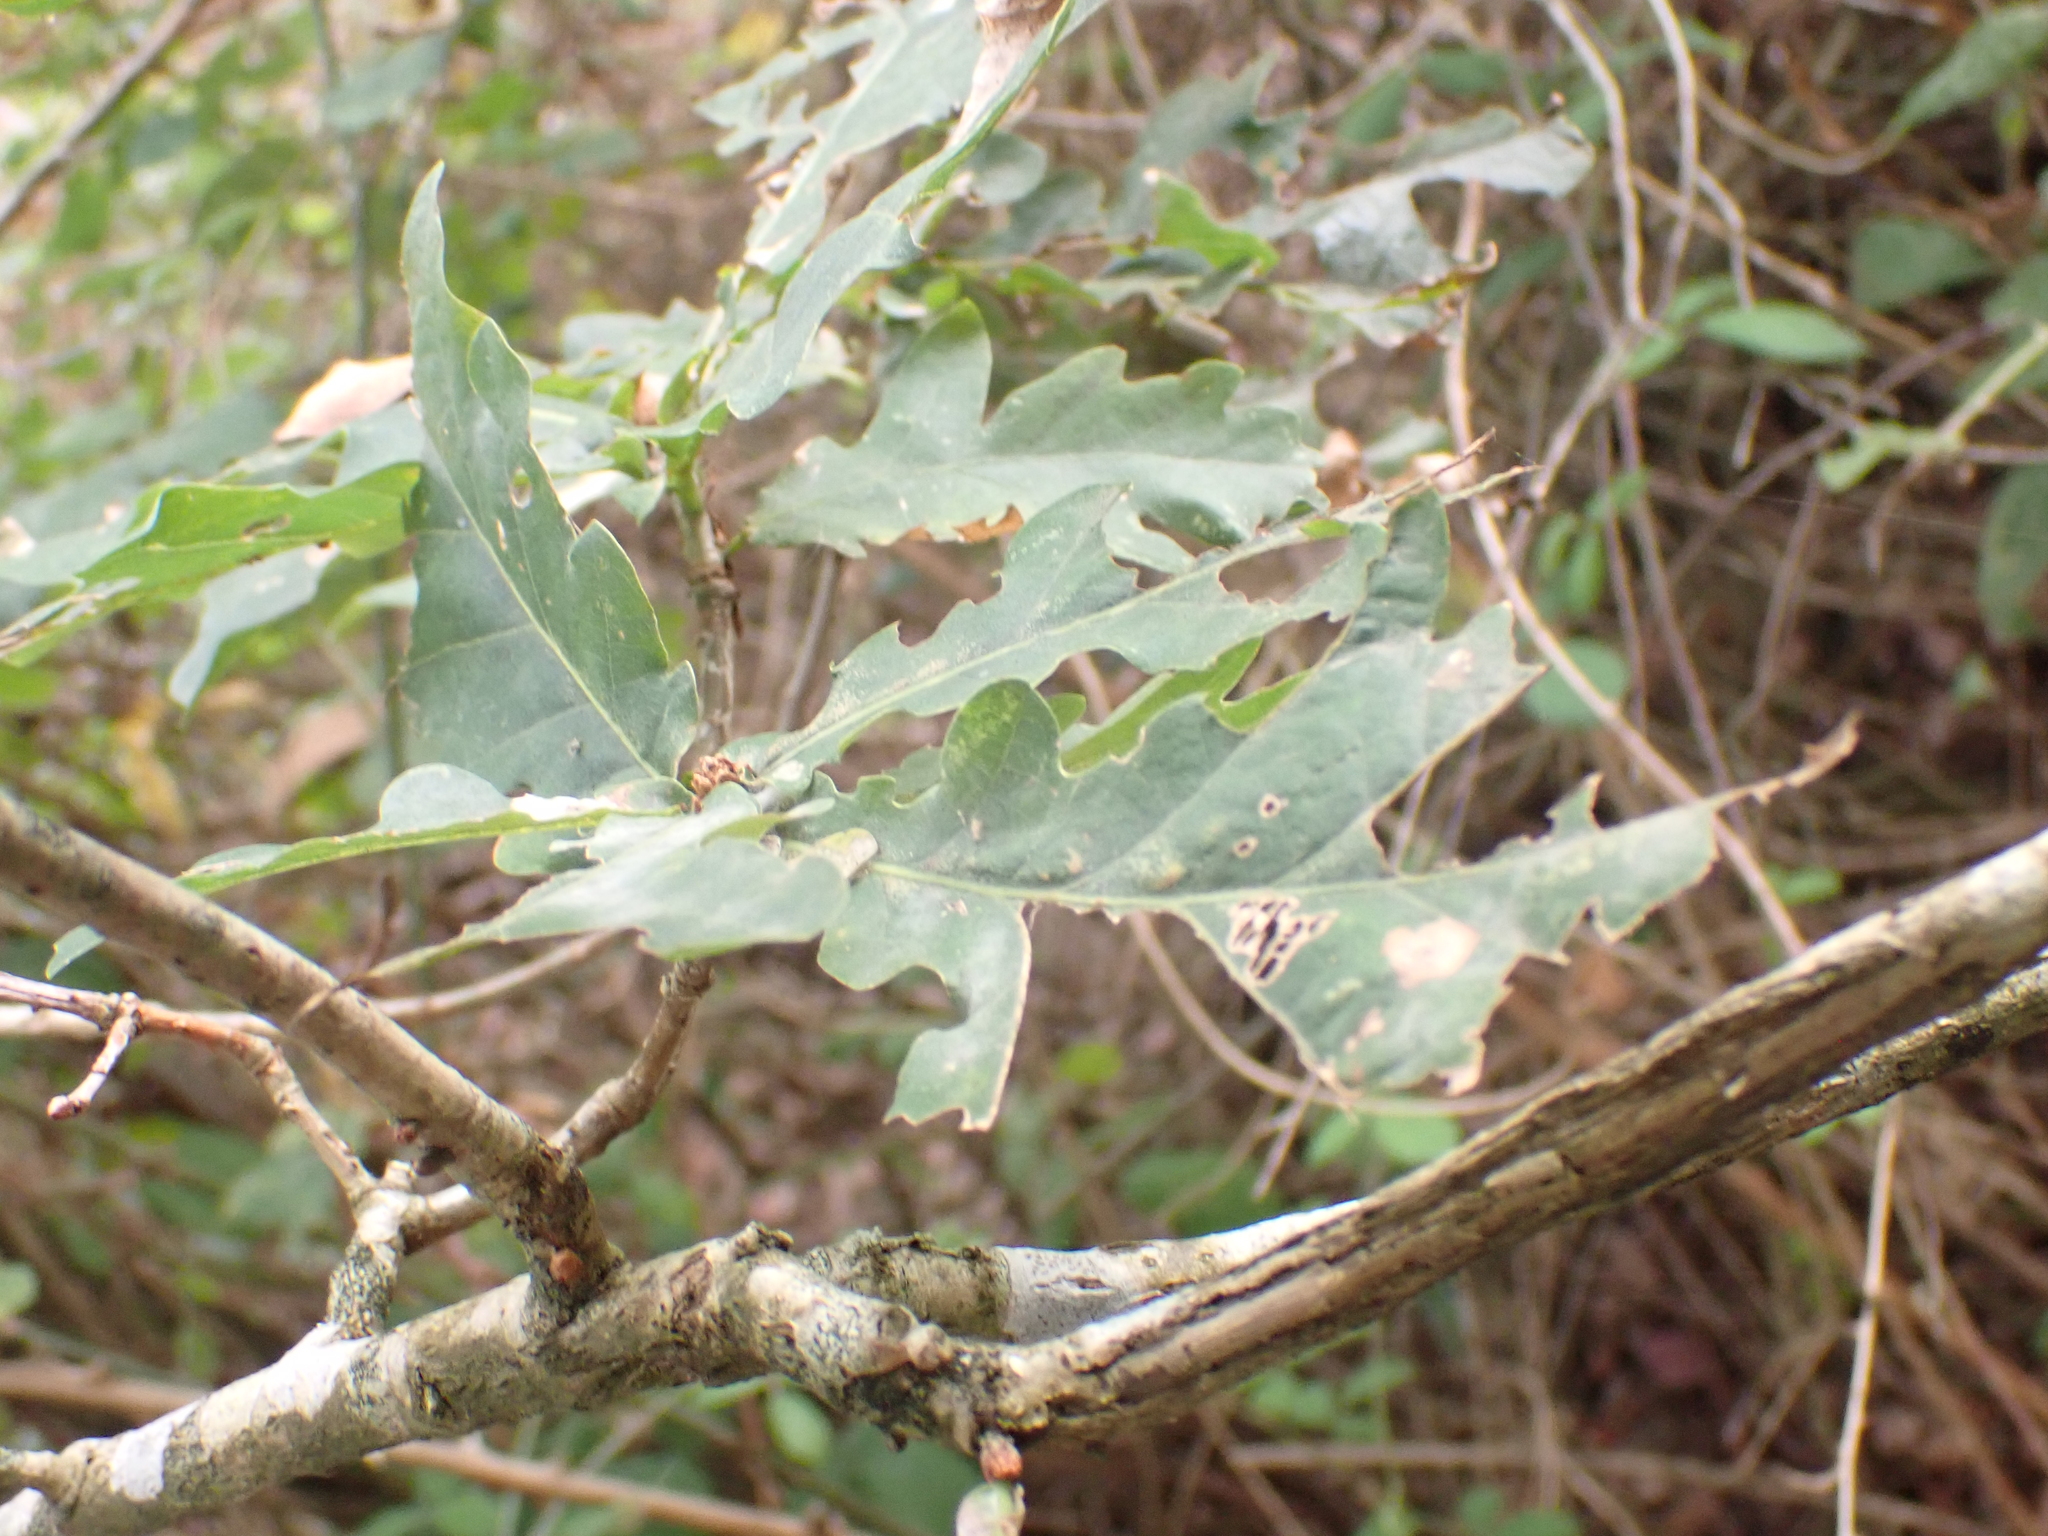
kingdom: Plantae
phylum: Tracheophyta
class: Magnoliopsida
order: Fagales
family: Fagaceae
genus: Quercus
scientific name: Quercus robur
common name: Pedunculate oak
